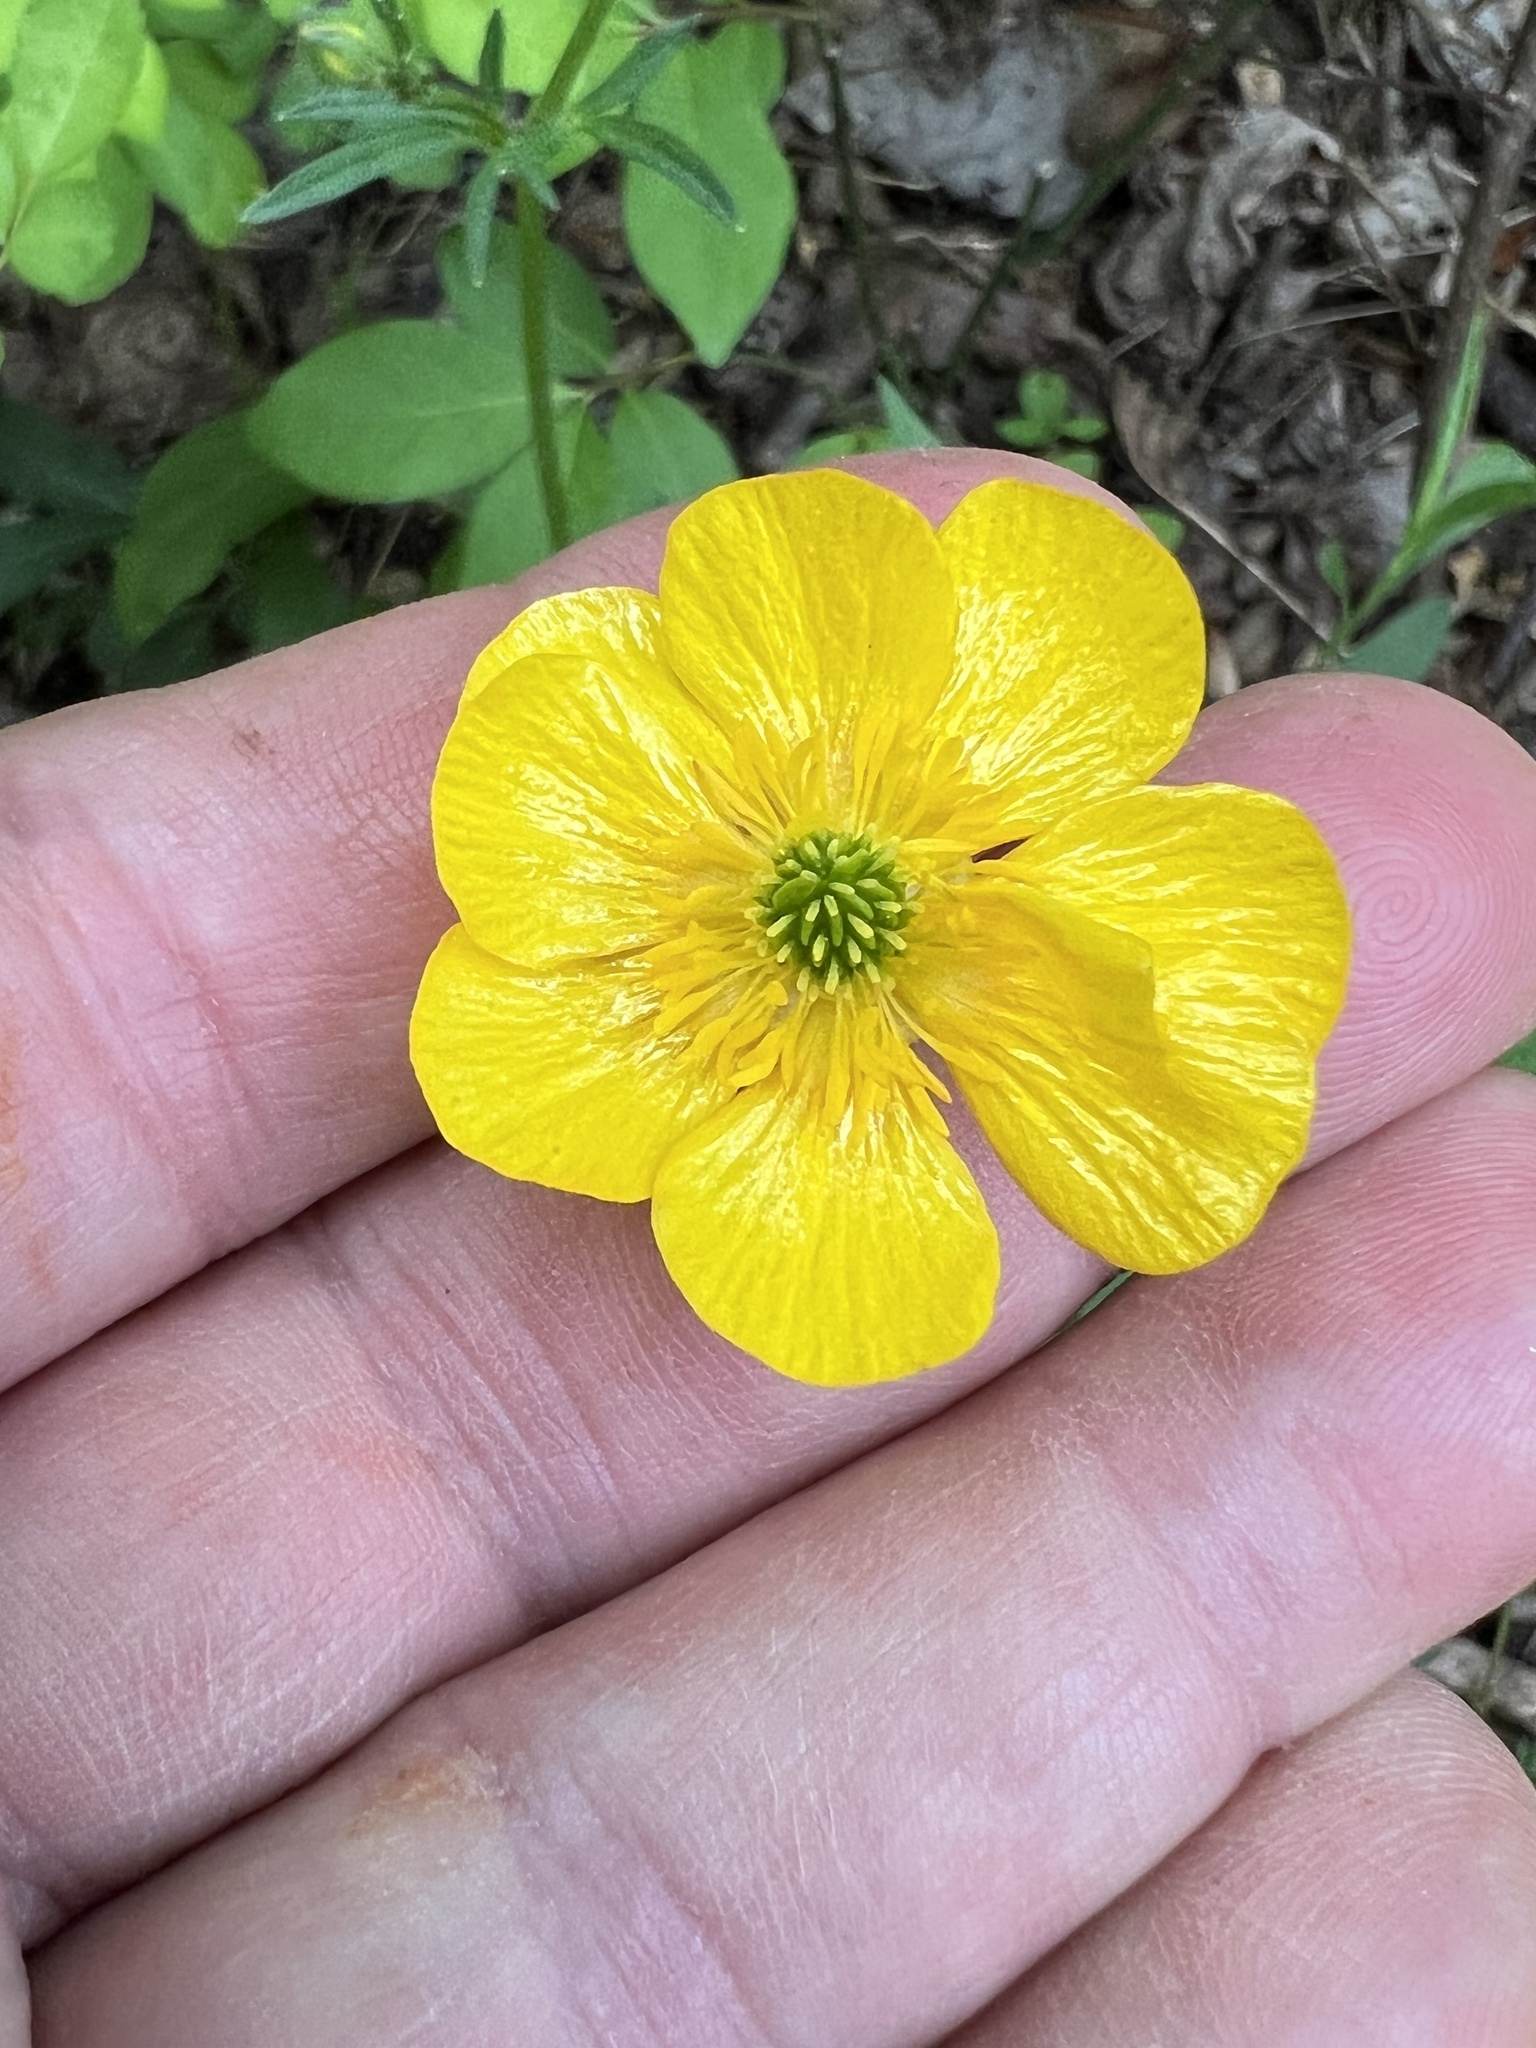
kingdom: Plantae
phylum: Tracheophyta
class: Magnoliopsida
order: Ranunculales
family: Ranunculaceae
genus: Ranunculus
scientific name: Ranunculus bulbosus
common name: Bulbous buttercup
